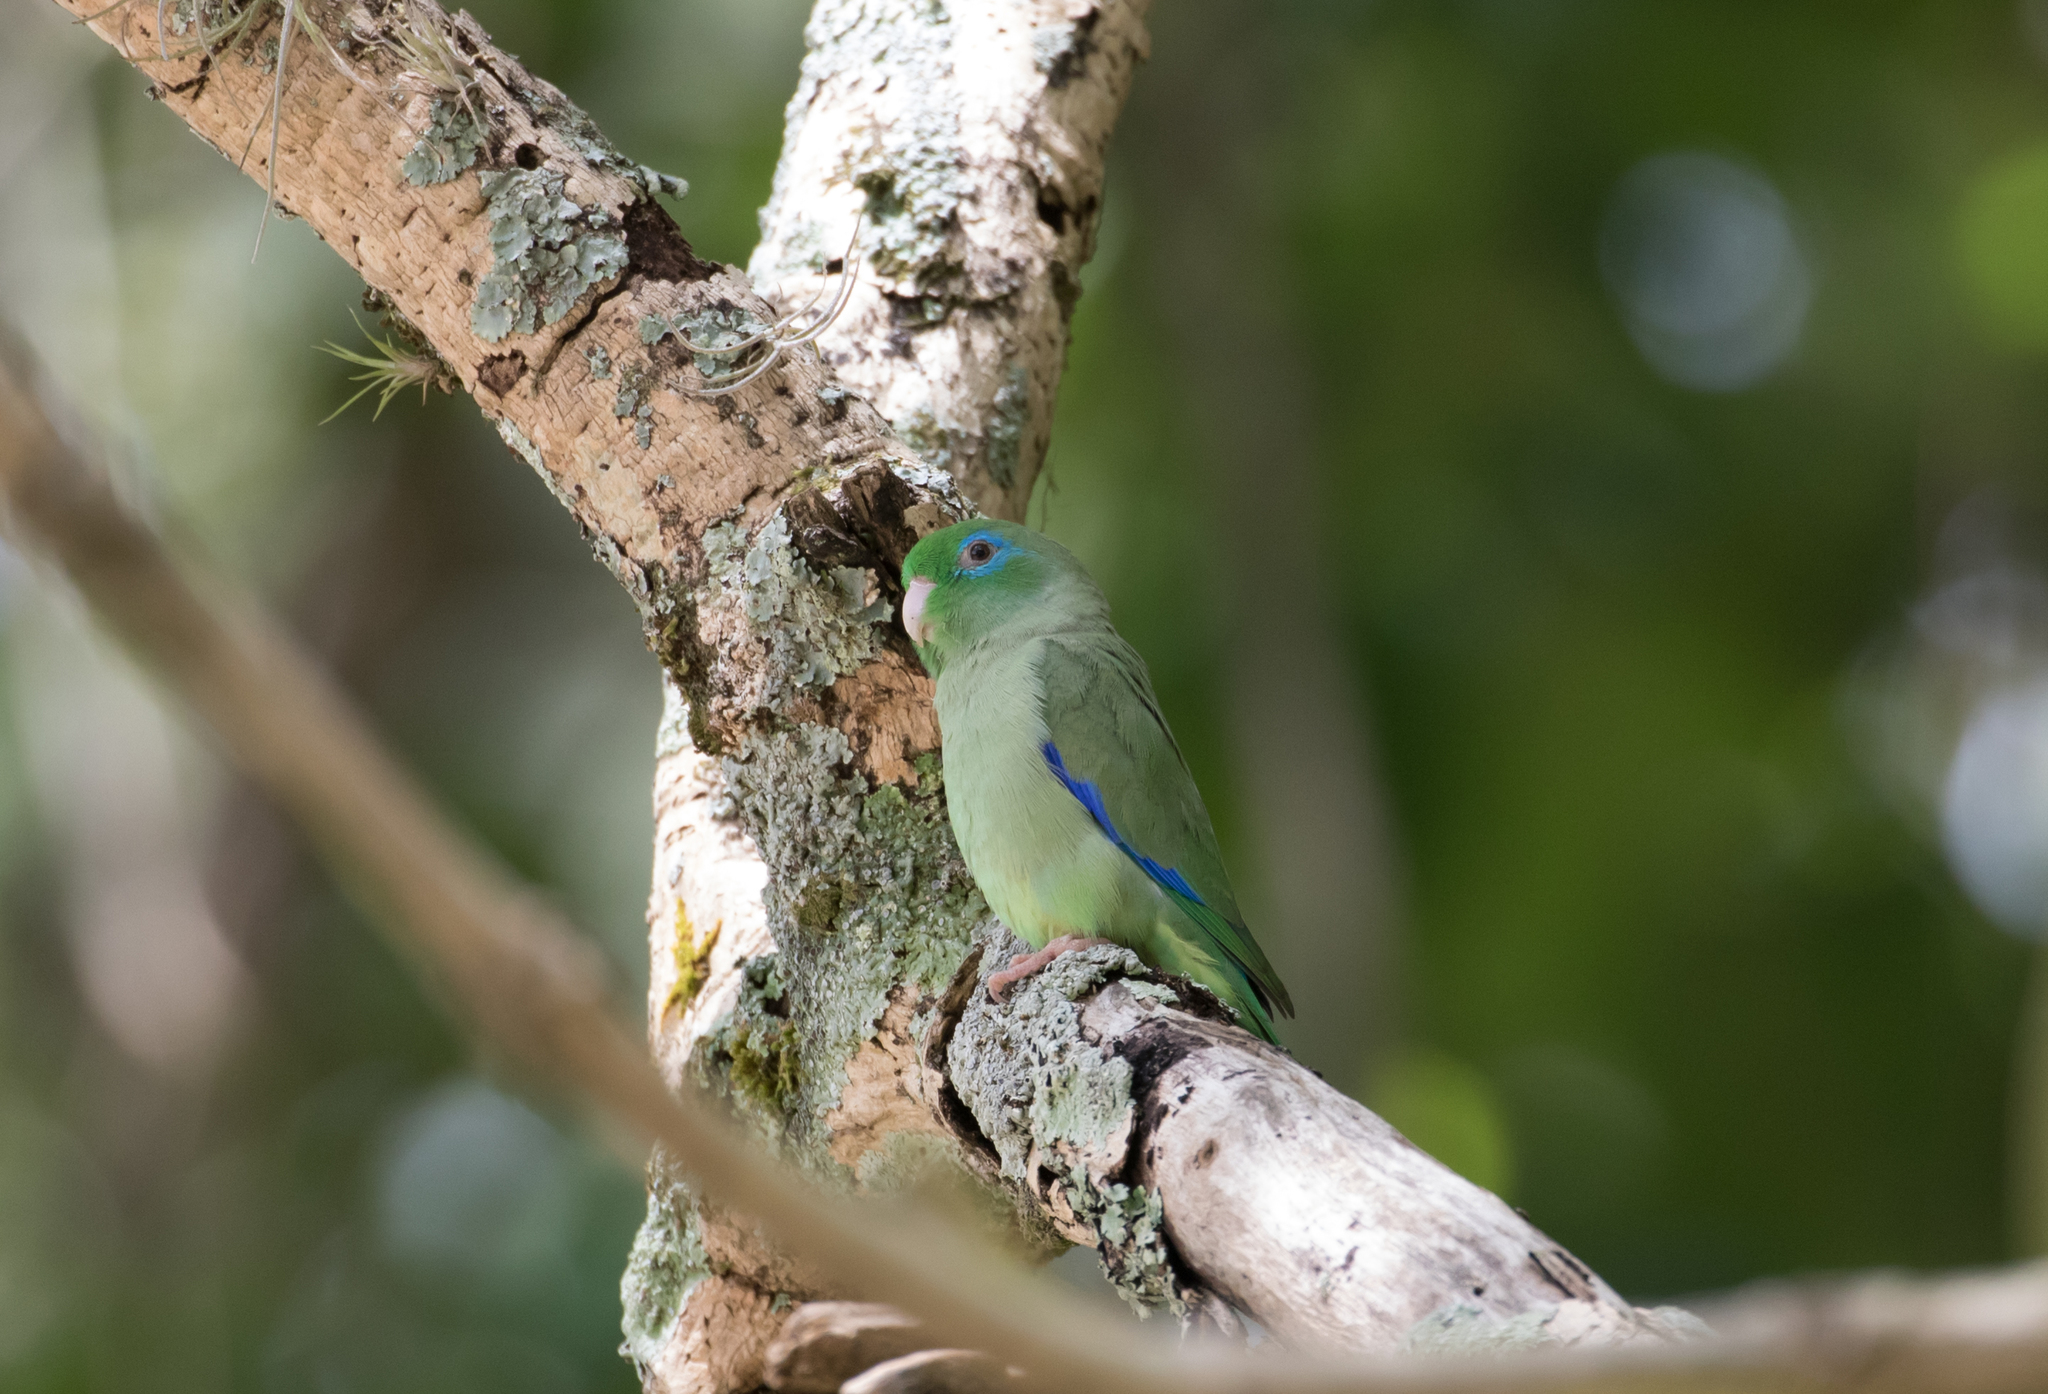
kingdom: Animalia
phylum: Chordata
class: Aves
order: Psittaciformes
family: Psittacidae
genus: Forpus
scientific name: Forpus conspicillatus
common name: Spectacled parrotlet
